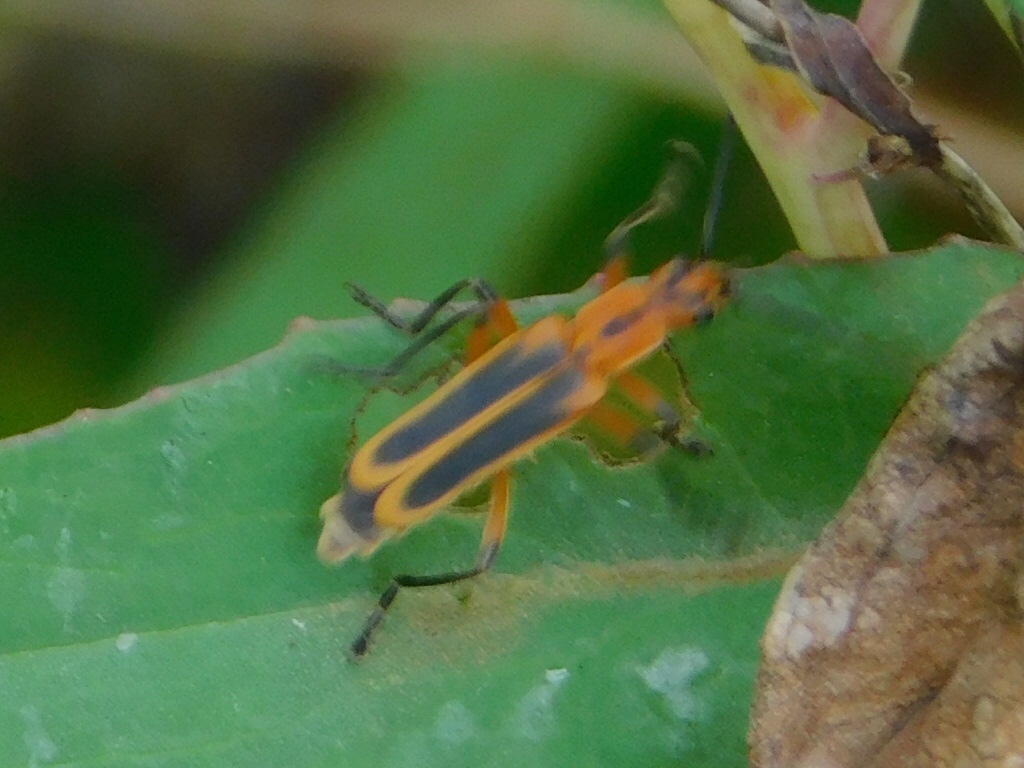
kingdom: Animalia
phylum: Arthropoda
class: Insecta
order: Coleoptera
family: Cantharidae
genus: Chauliognathus
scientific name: Chauliognathus marginatus
